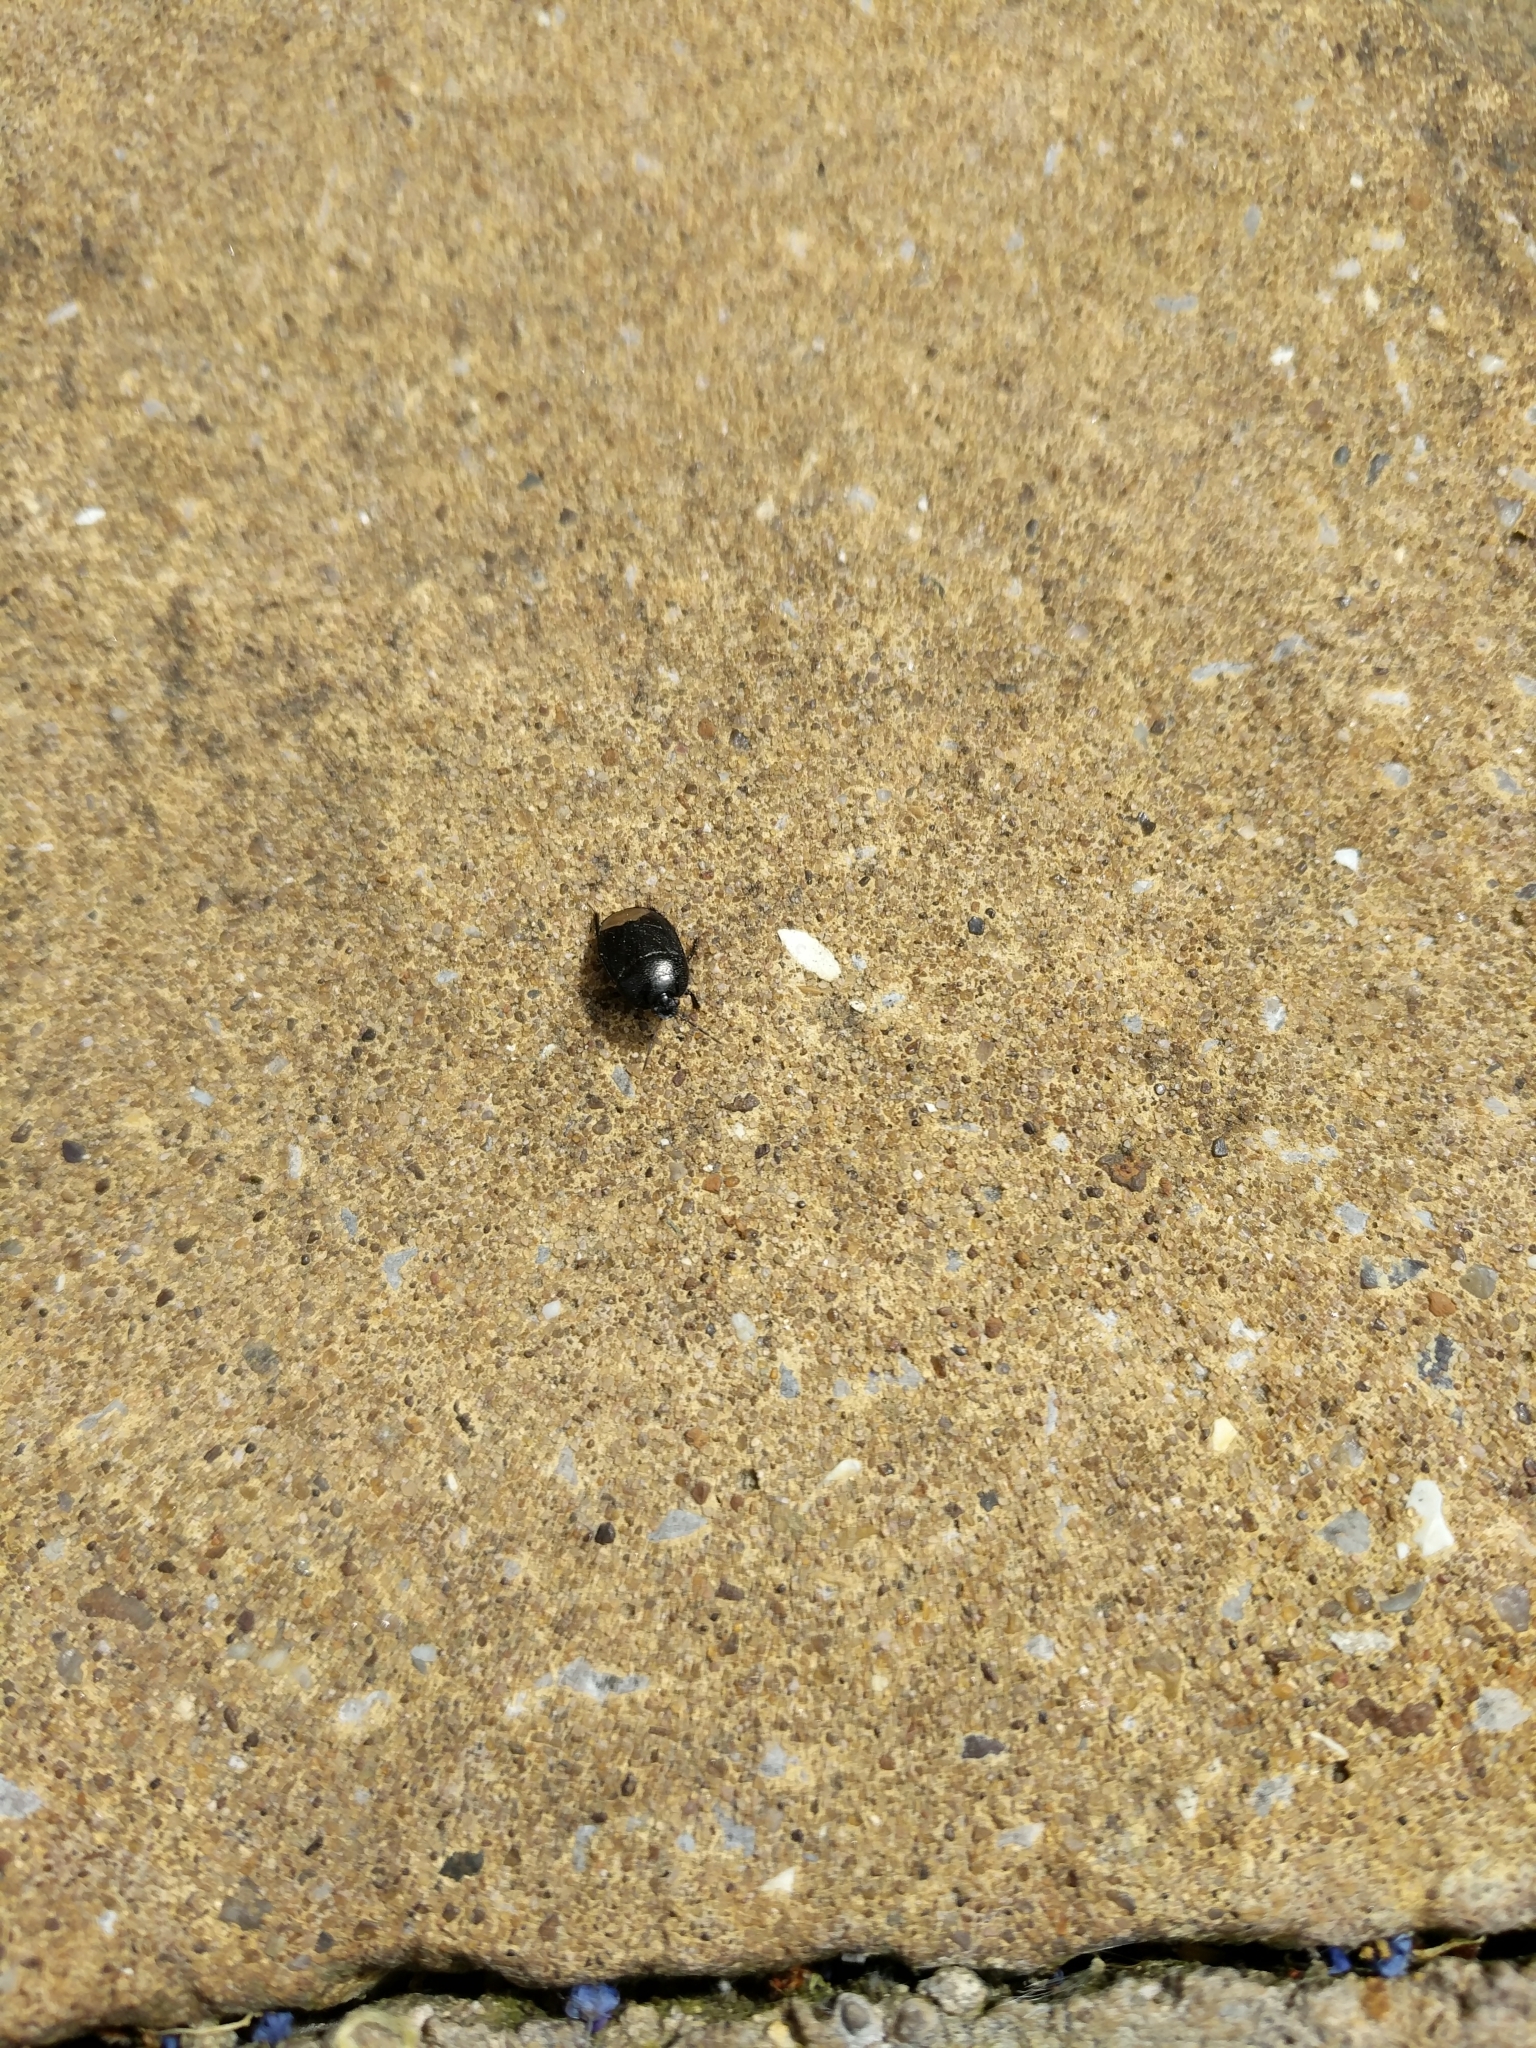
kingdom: Animalia
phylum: Arthropoda
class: Insecta
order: Hemiptera
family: Cydnidae
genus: Sehirus
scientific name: Sehirus luctuosus
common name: Forget-me-not shieldbug
